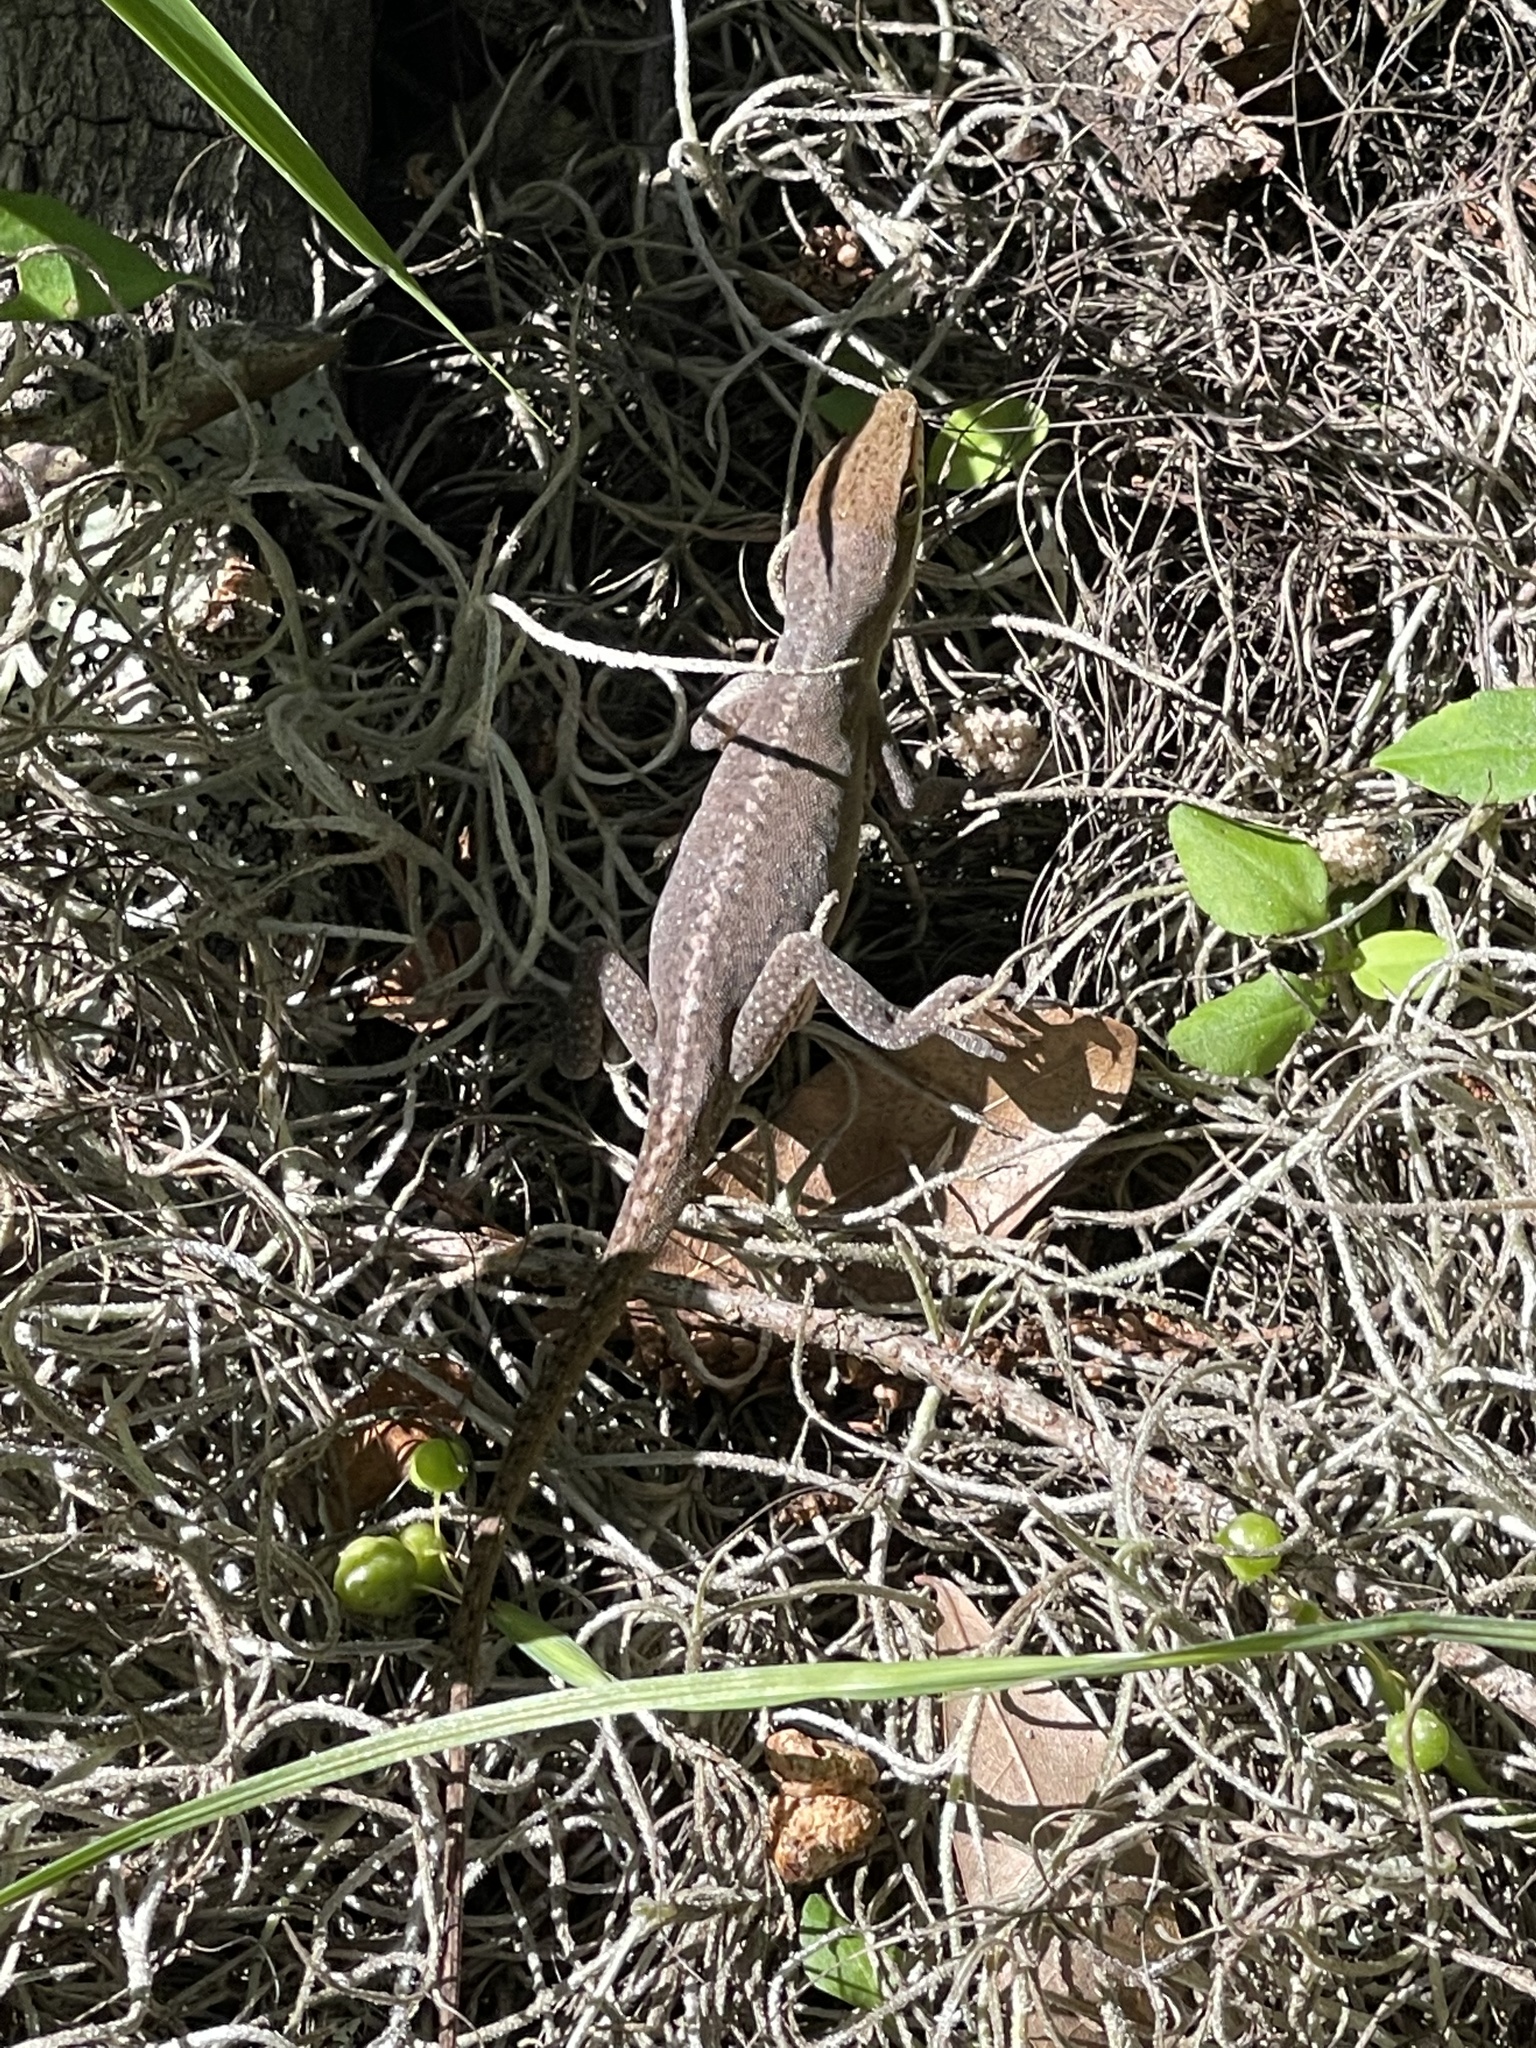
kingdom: Animalia
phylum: Chordata
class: Squamata
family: Dactyloidae
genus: Anolis
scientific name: Anolis carolinensis
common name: Green anole
